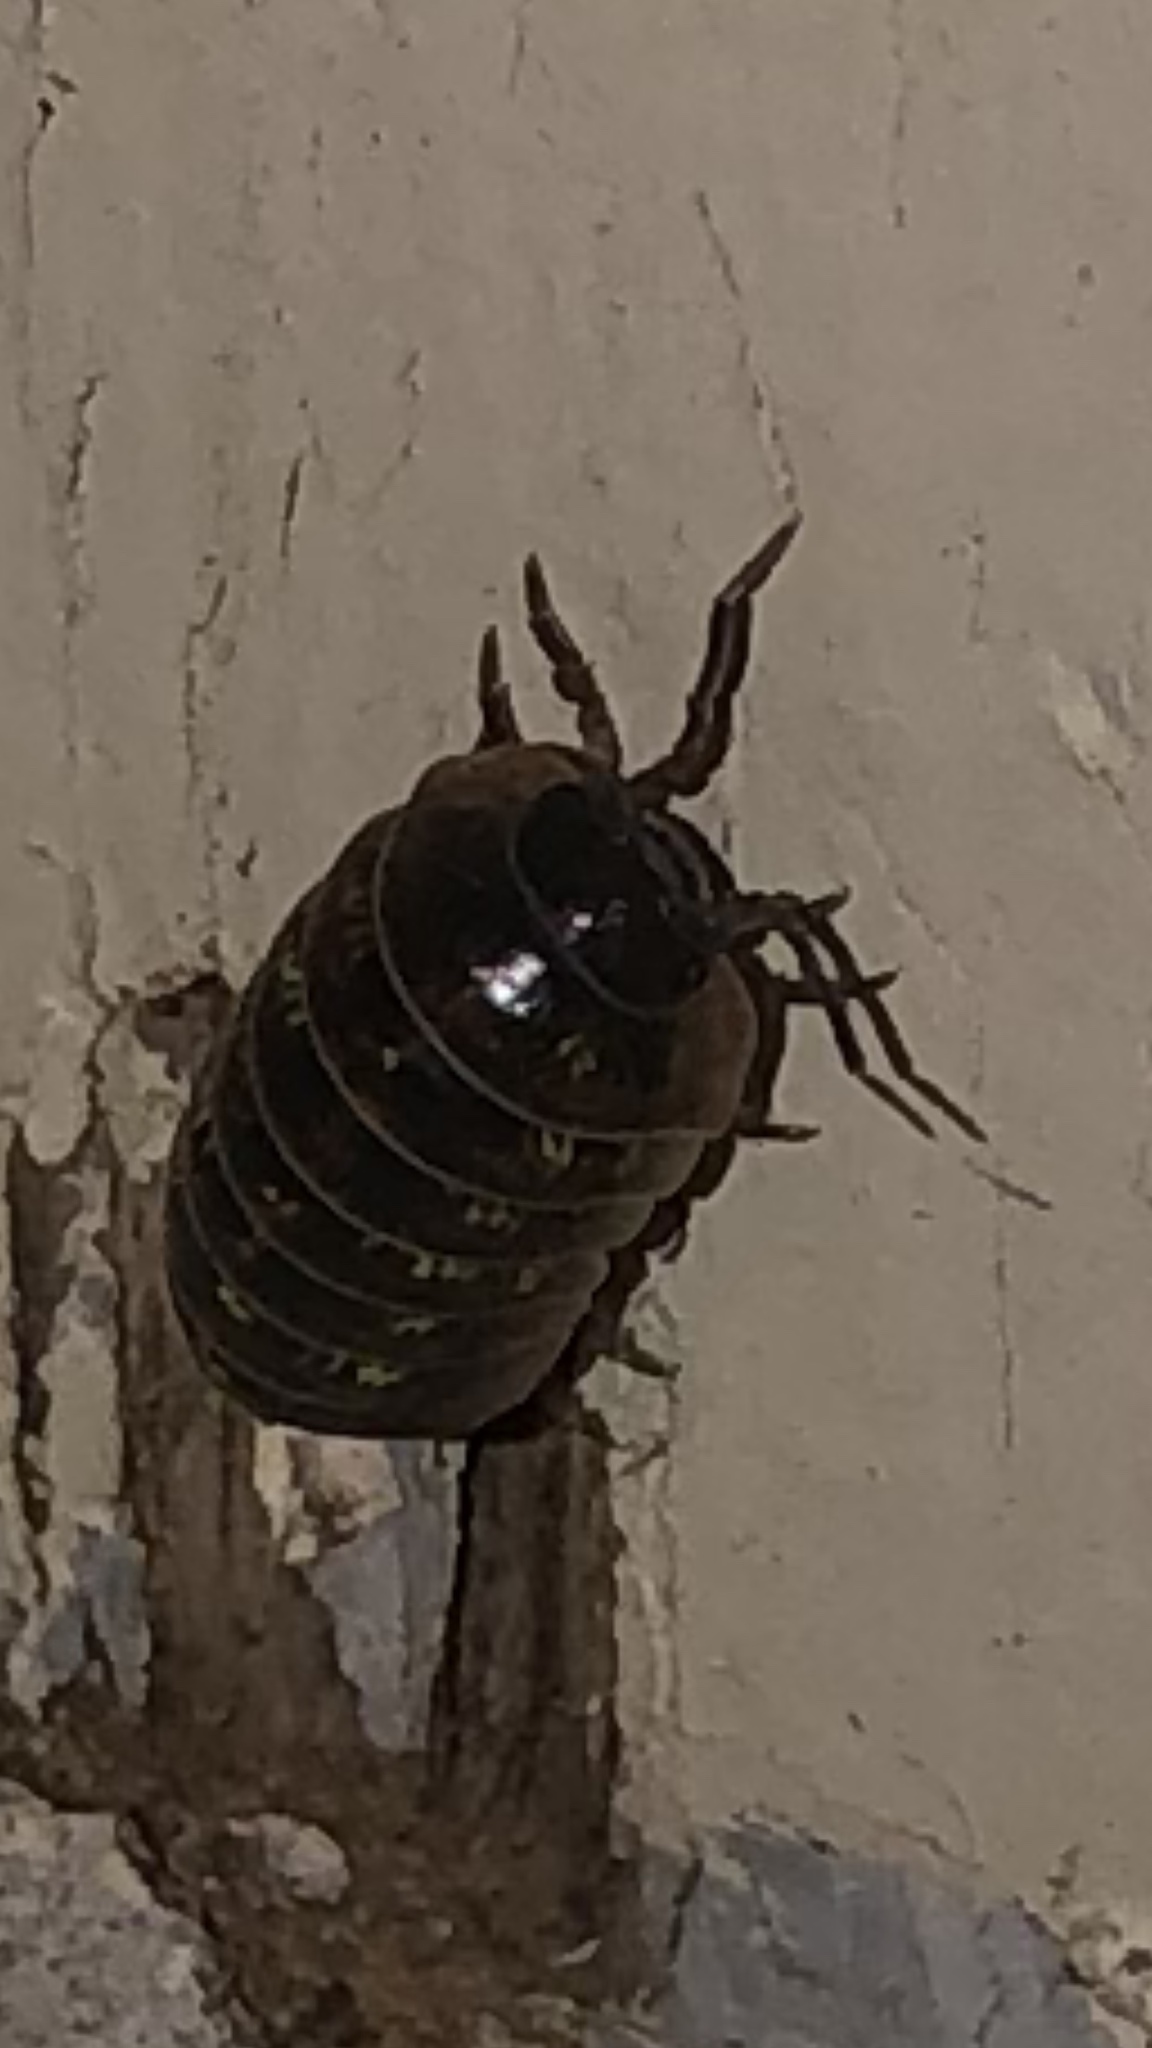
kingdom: Animalia
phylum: Arthropoda
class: Malacostraca
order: Isopoda
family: Armadillidiidae
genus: Armadillidium
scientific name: Armadillidium vulgare
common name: Common pill woodlouse
